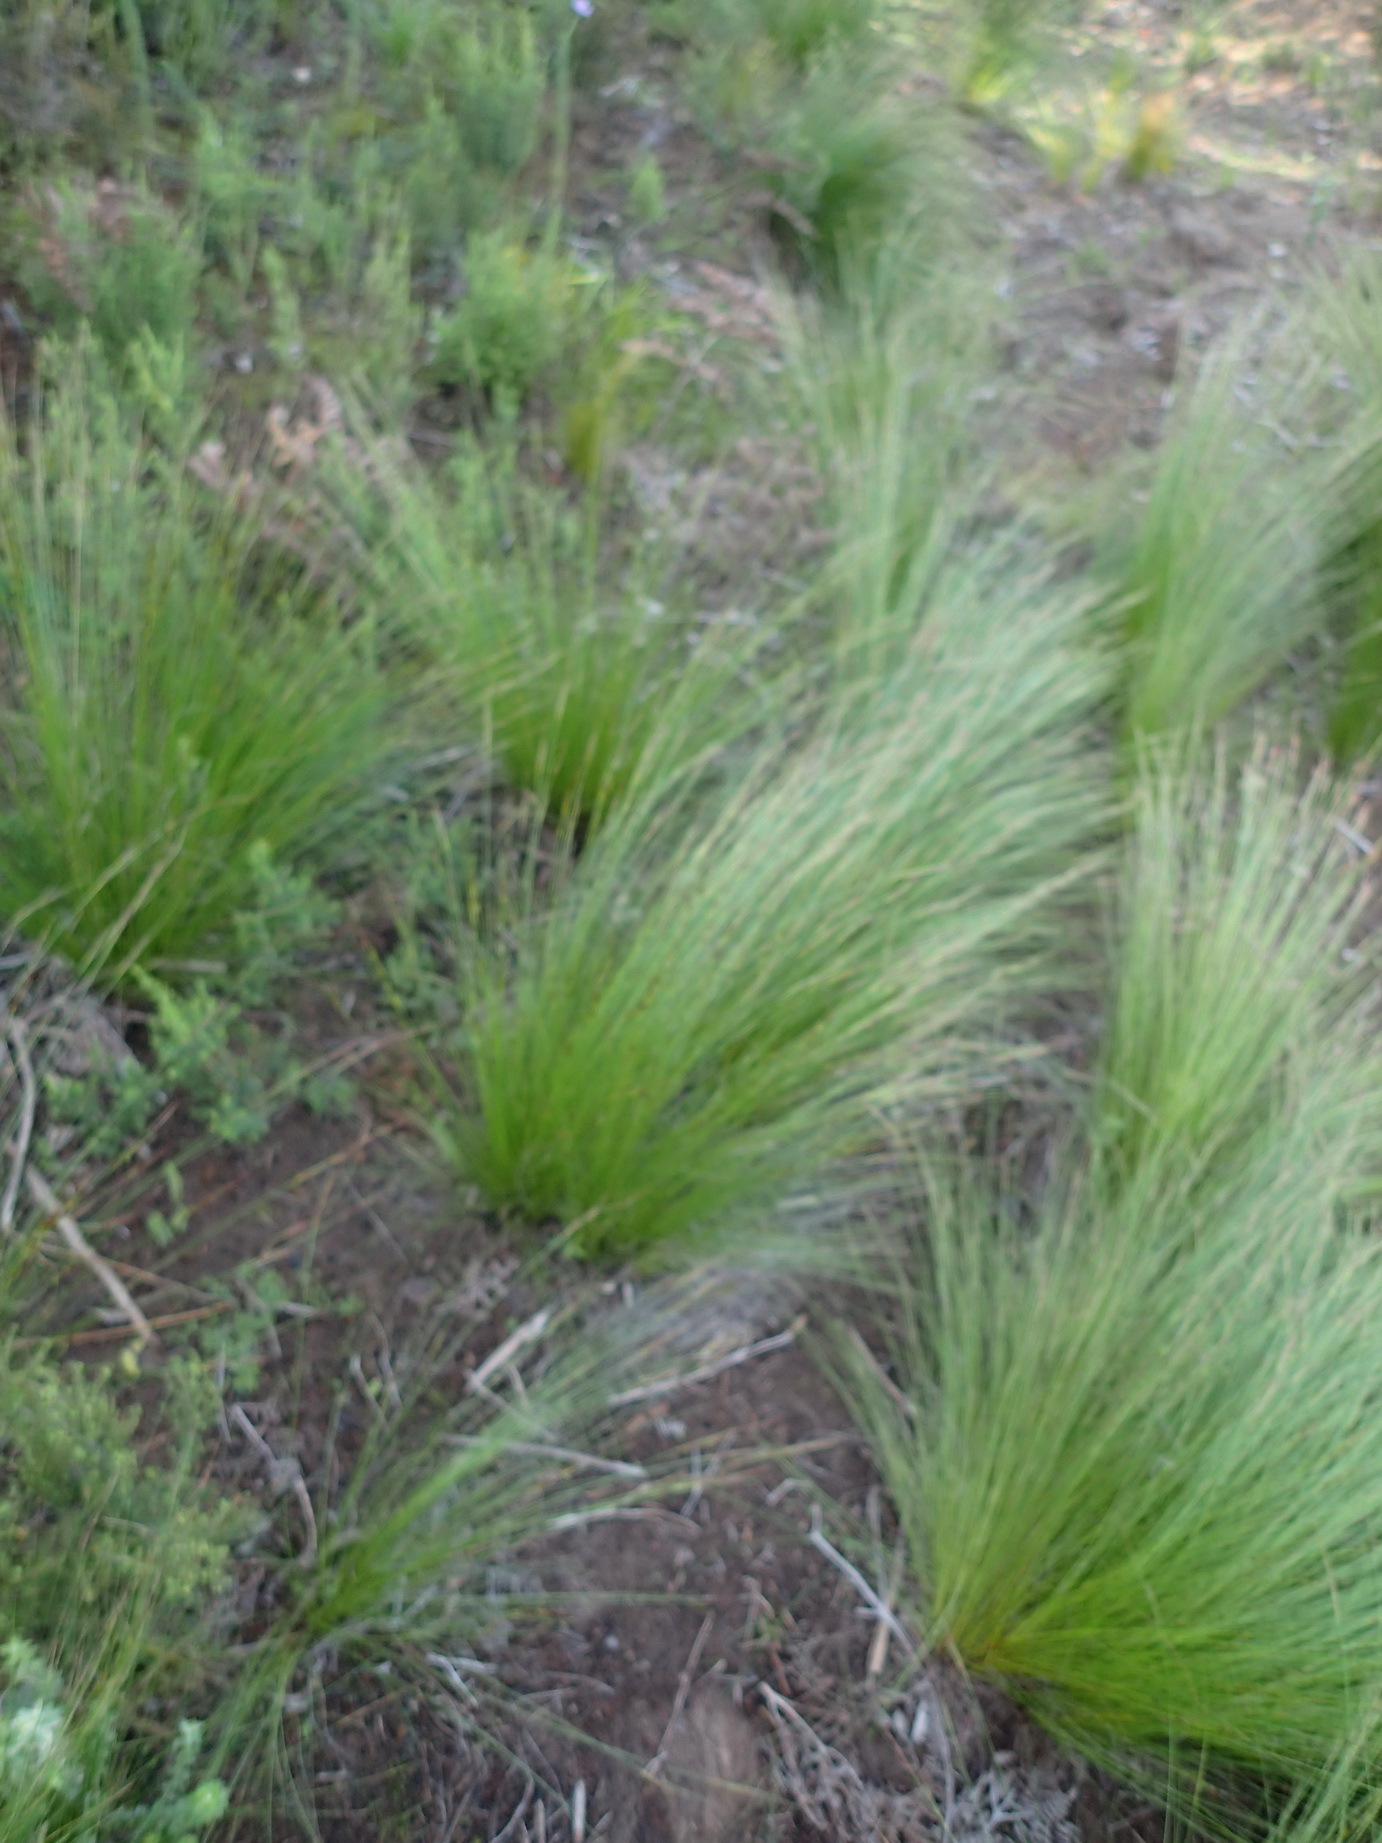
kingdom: Plantae
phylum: Tracheophyta
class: Liliopsida
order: Poales
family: Cyperaceae
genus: Schoenus
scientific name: Schoenus graciliculmis
